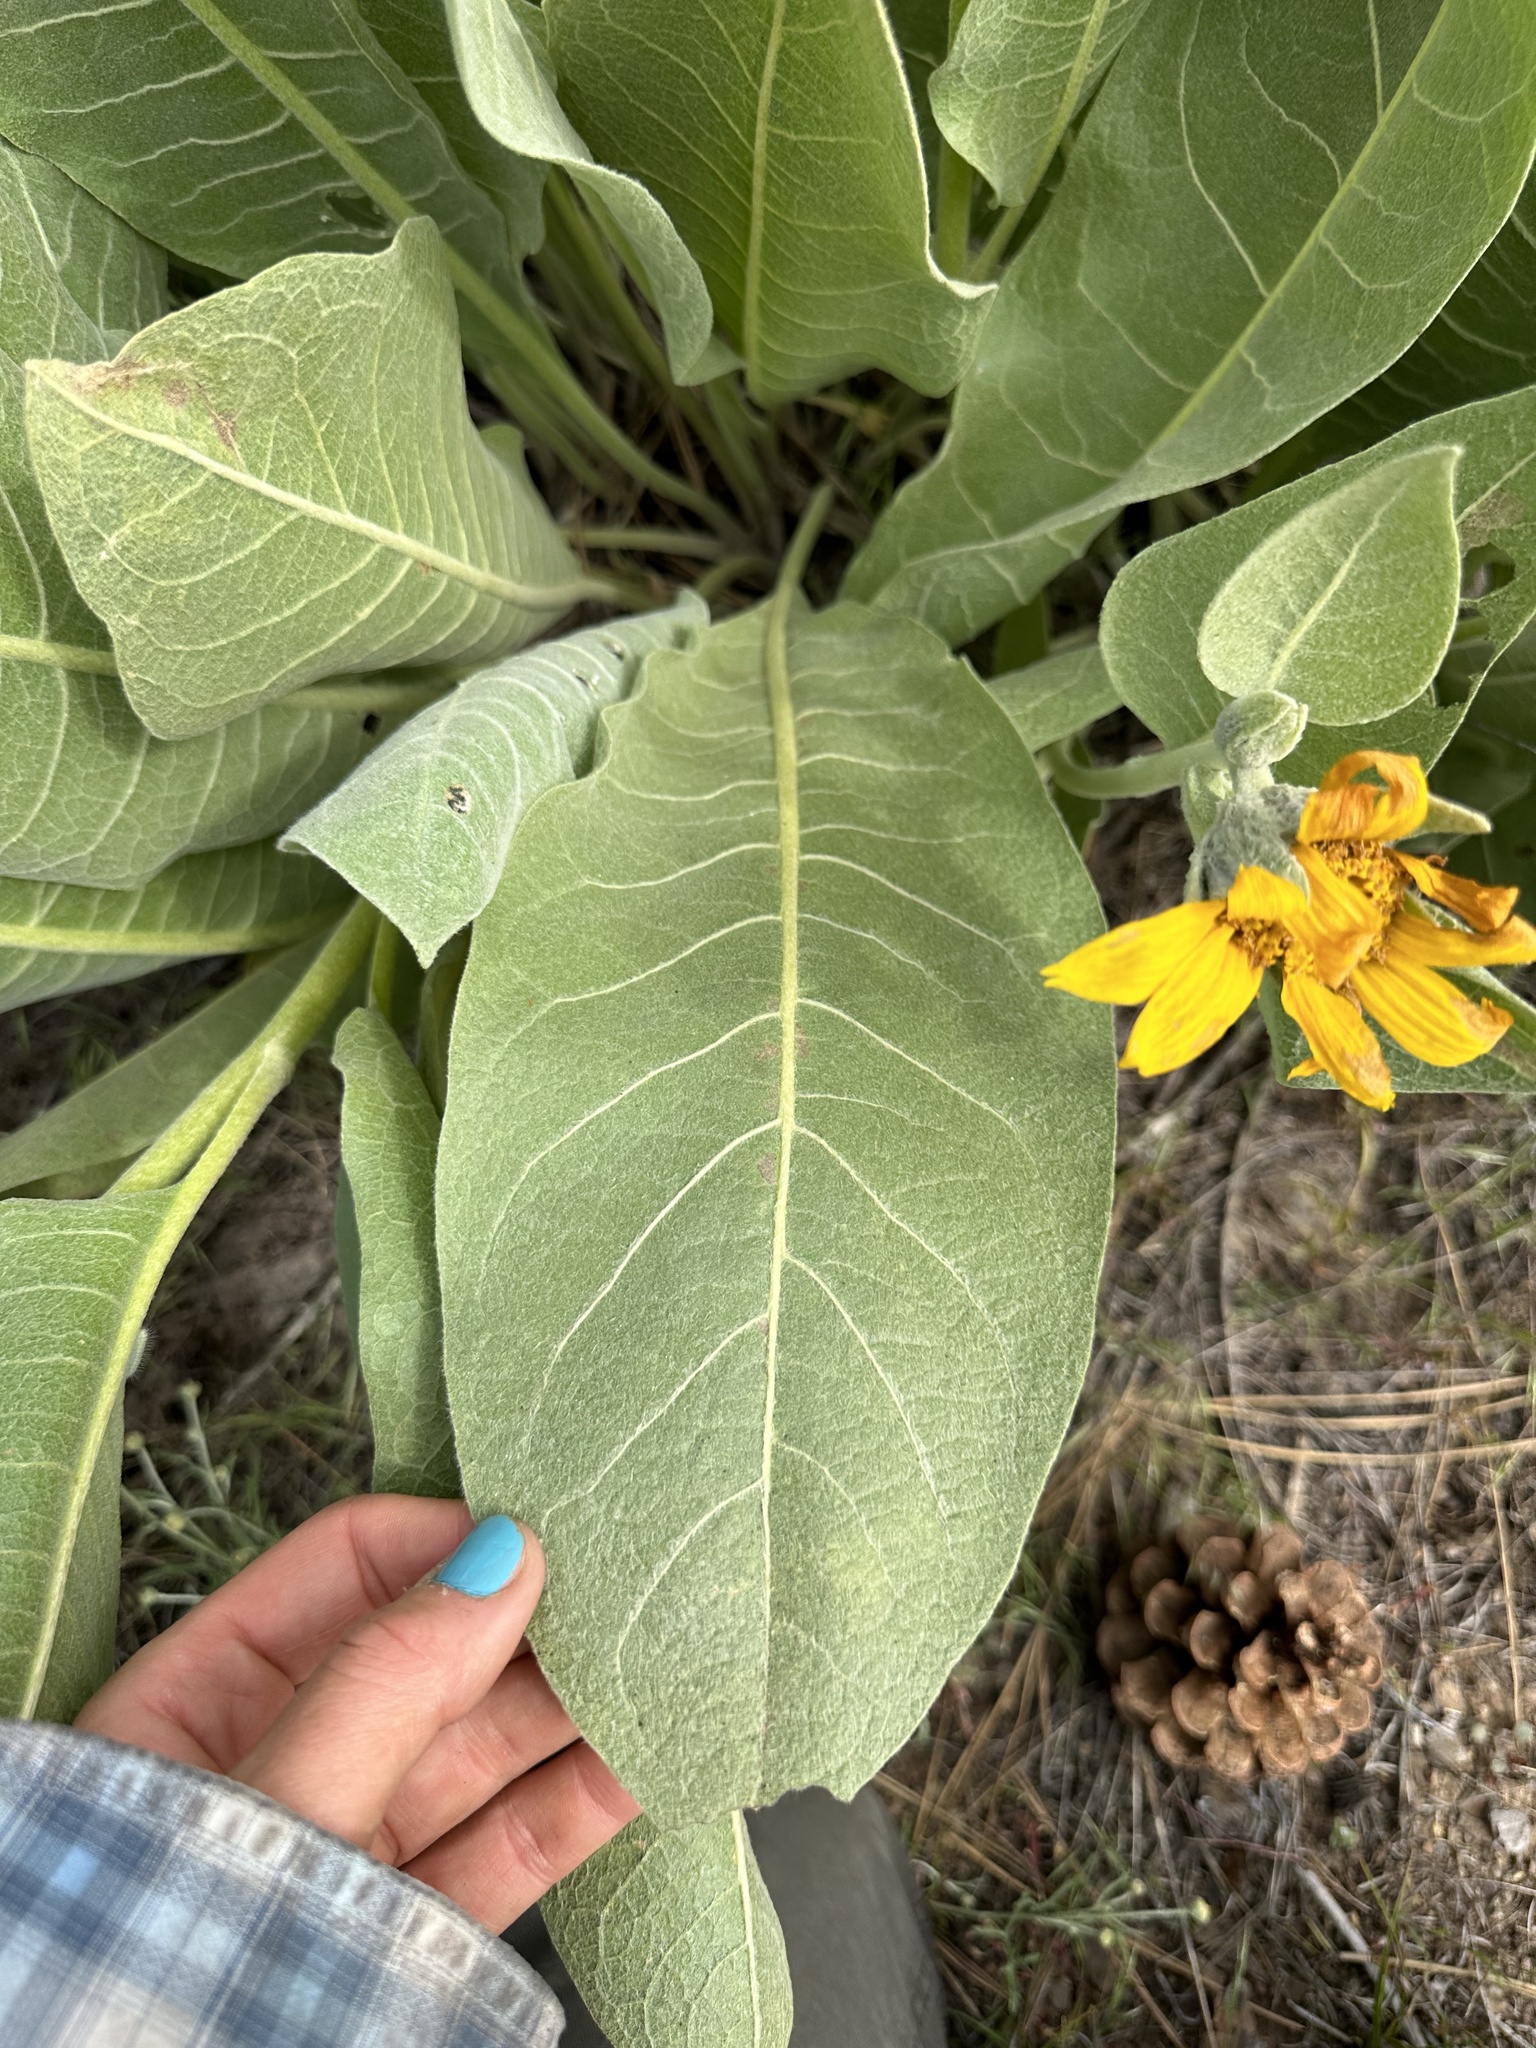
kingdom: Plantae
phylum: Tracheophyta
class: Magnoliopsida
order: Asterales
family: Asteraceae
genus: Wyethia
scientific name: Wyethia mollis
